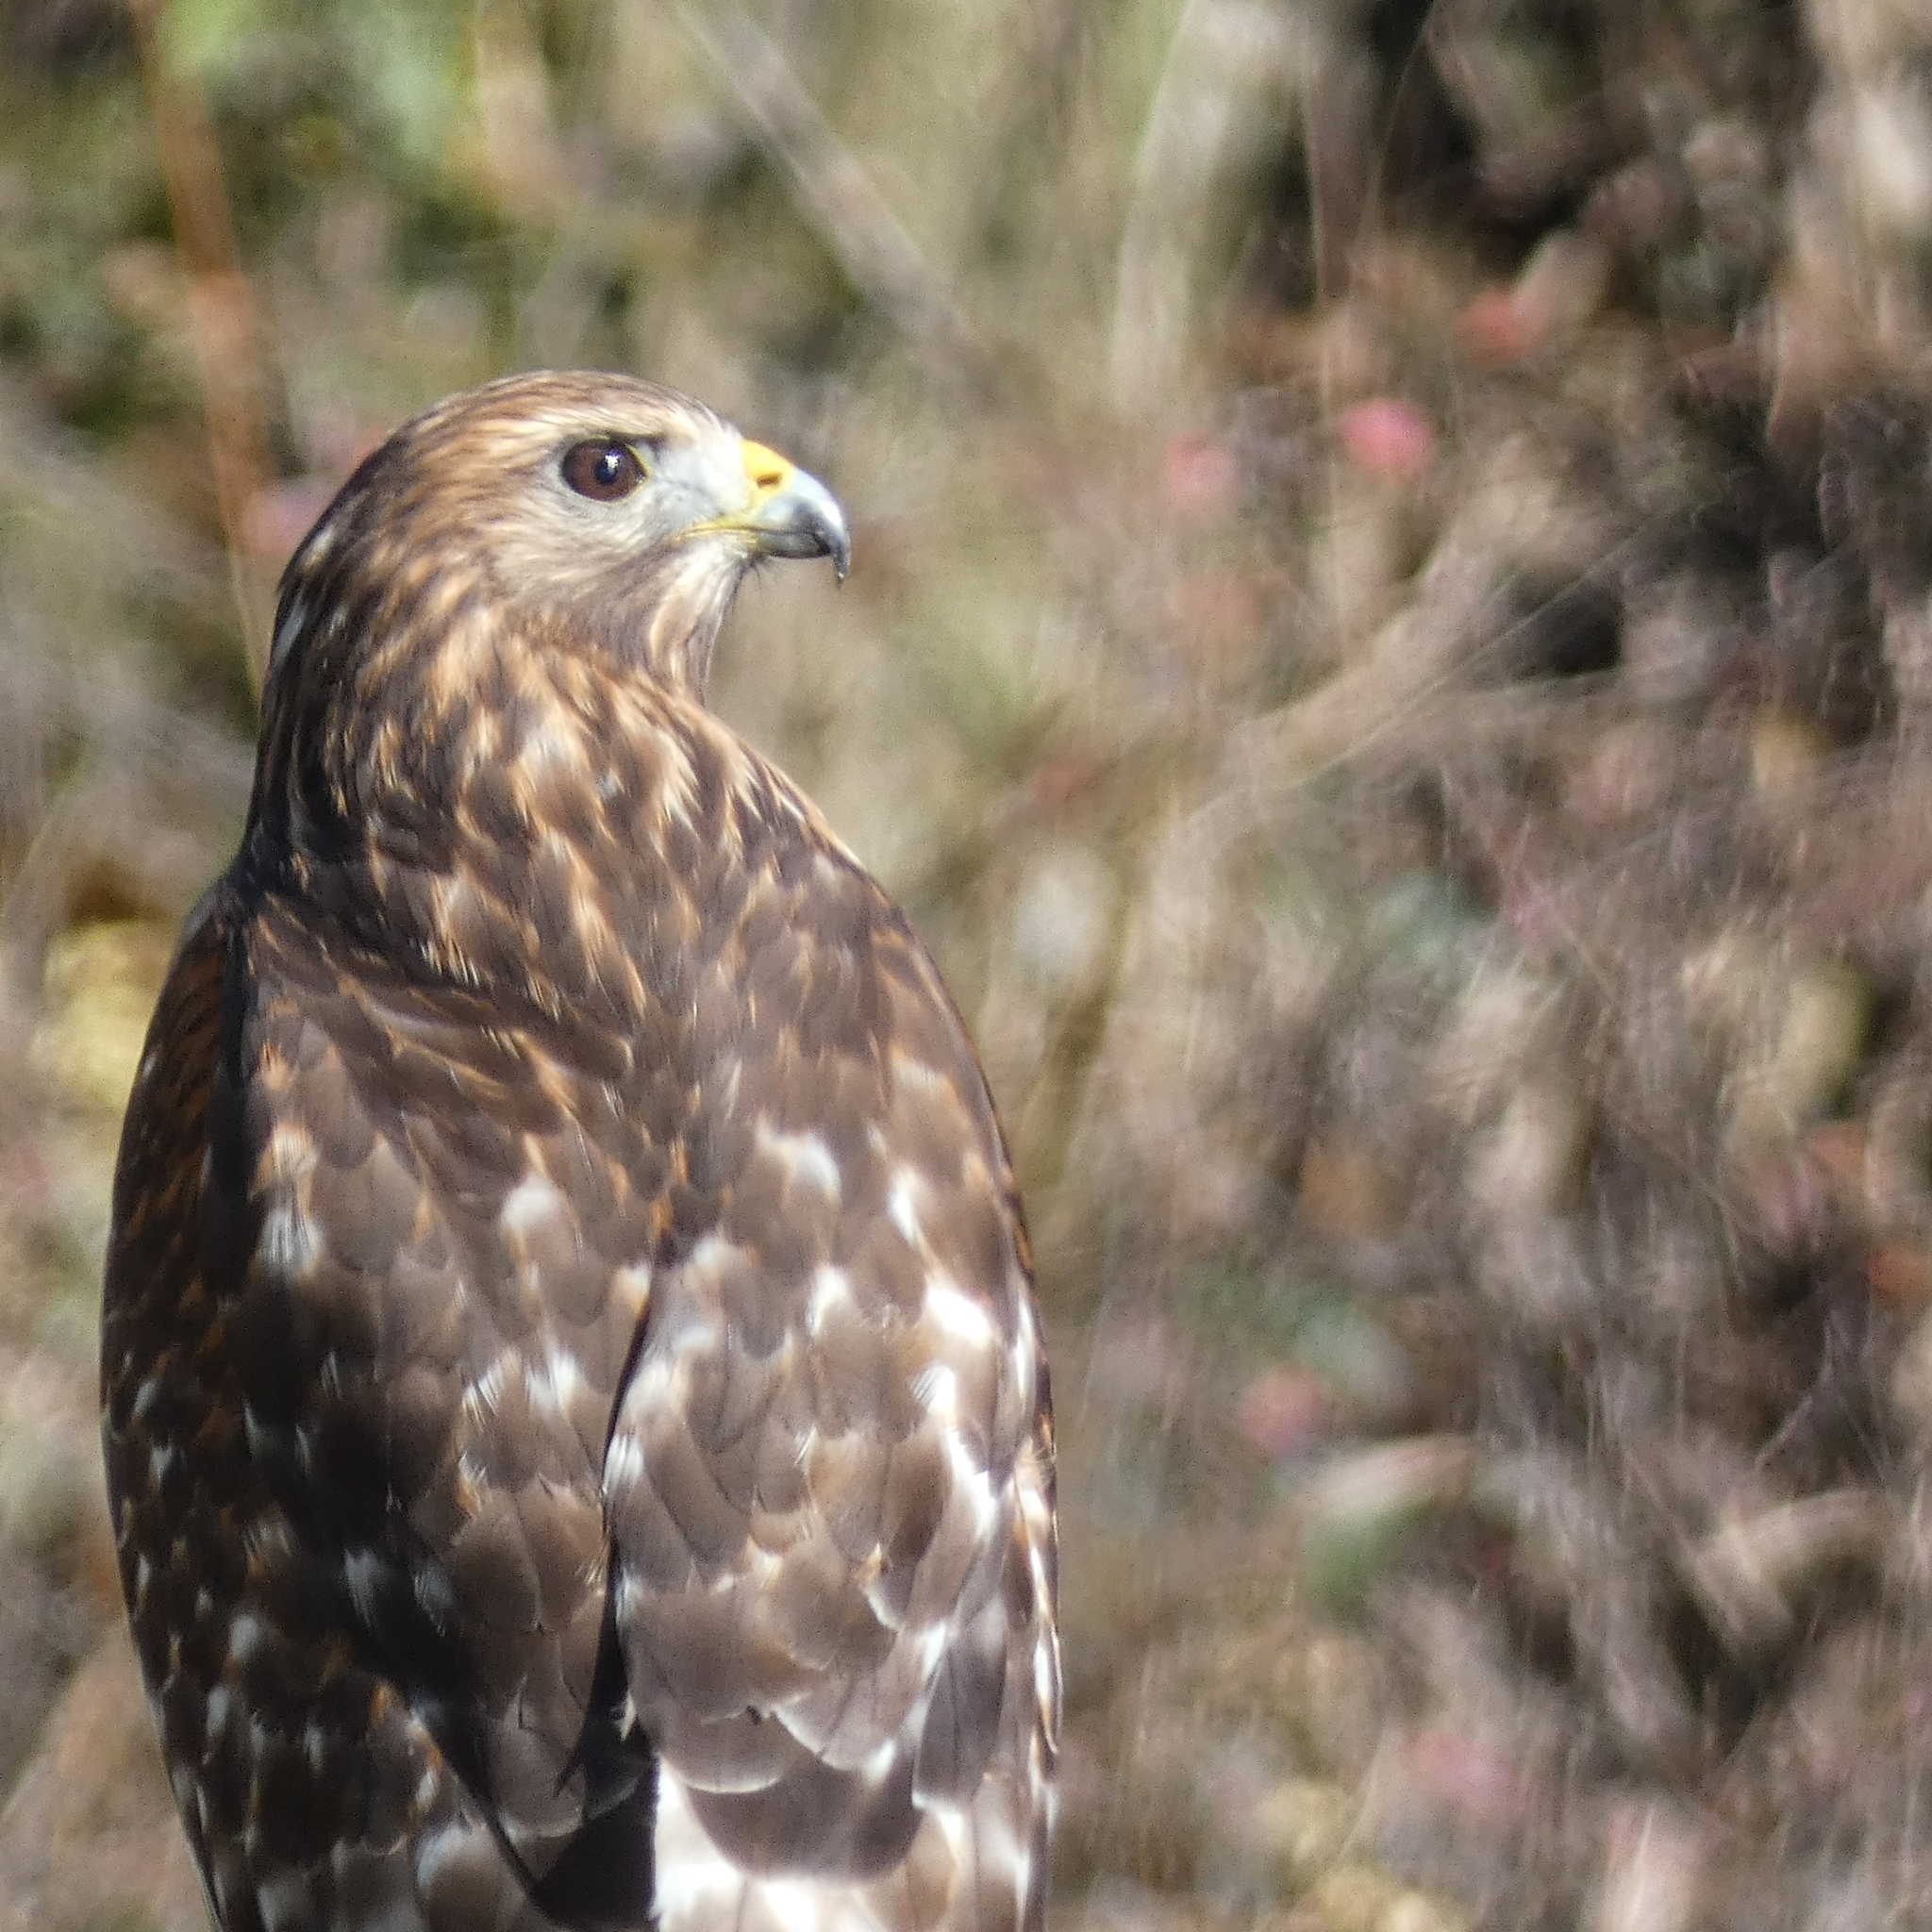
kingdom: Animalia
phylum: Chordata
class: Aves
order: Accipitriformes
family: Accipitridae
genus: Buteo
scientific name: Buteo lineatus
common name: Red-shouldered hawk
